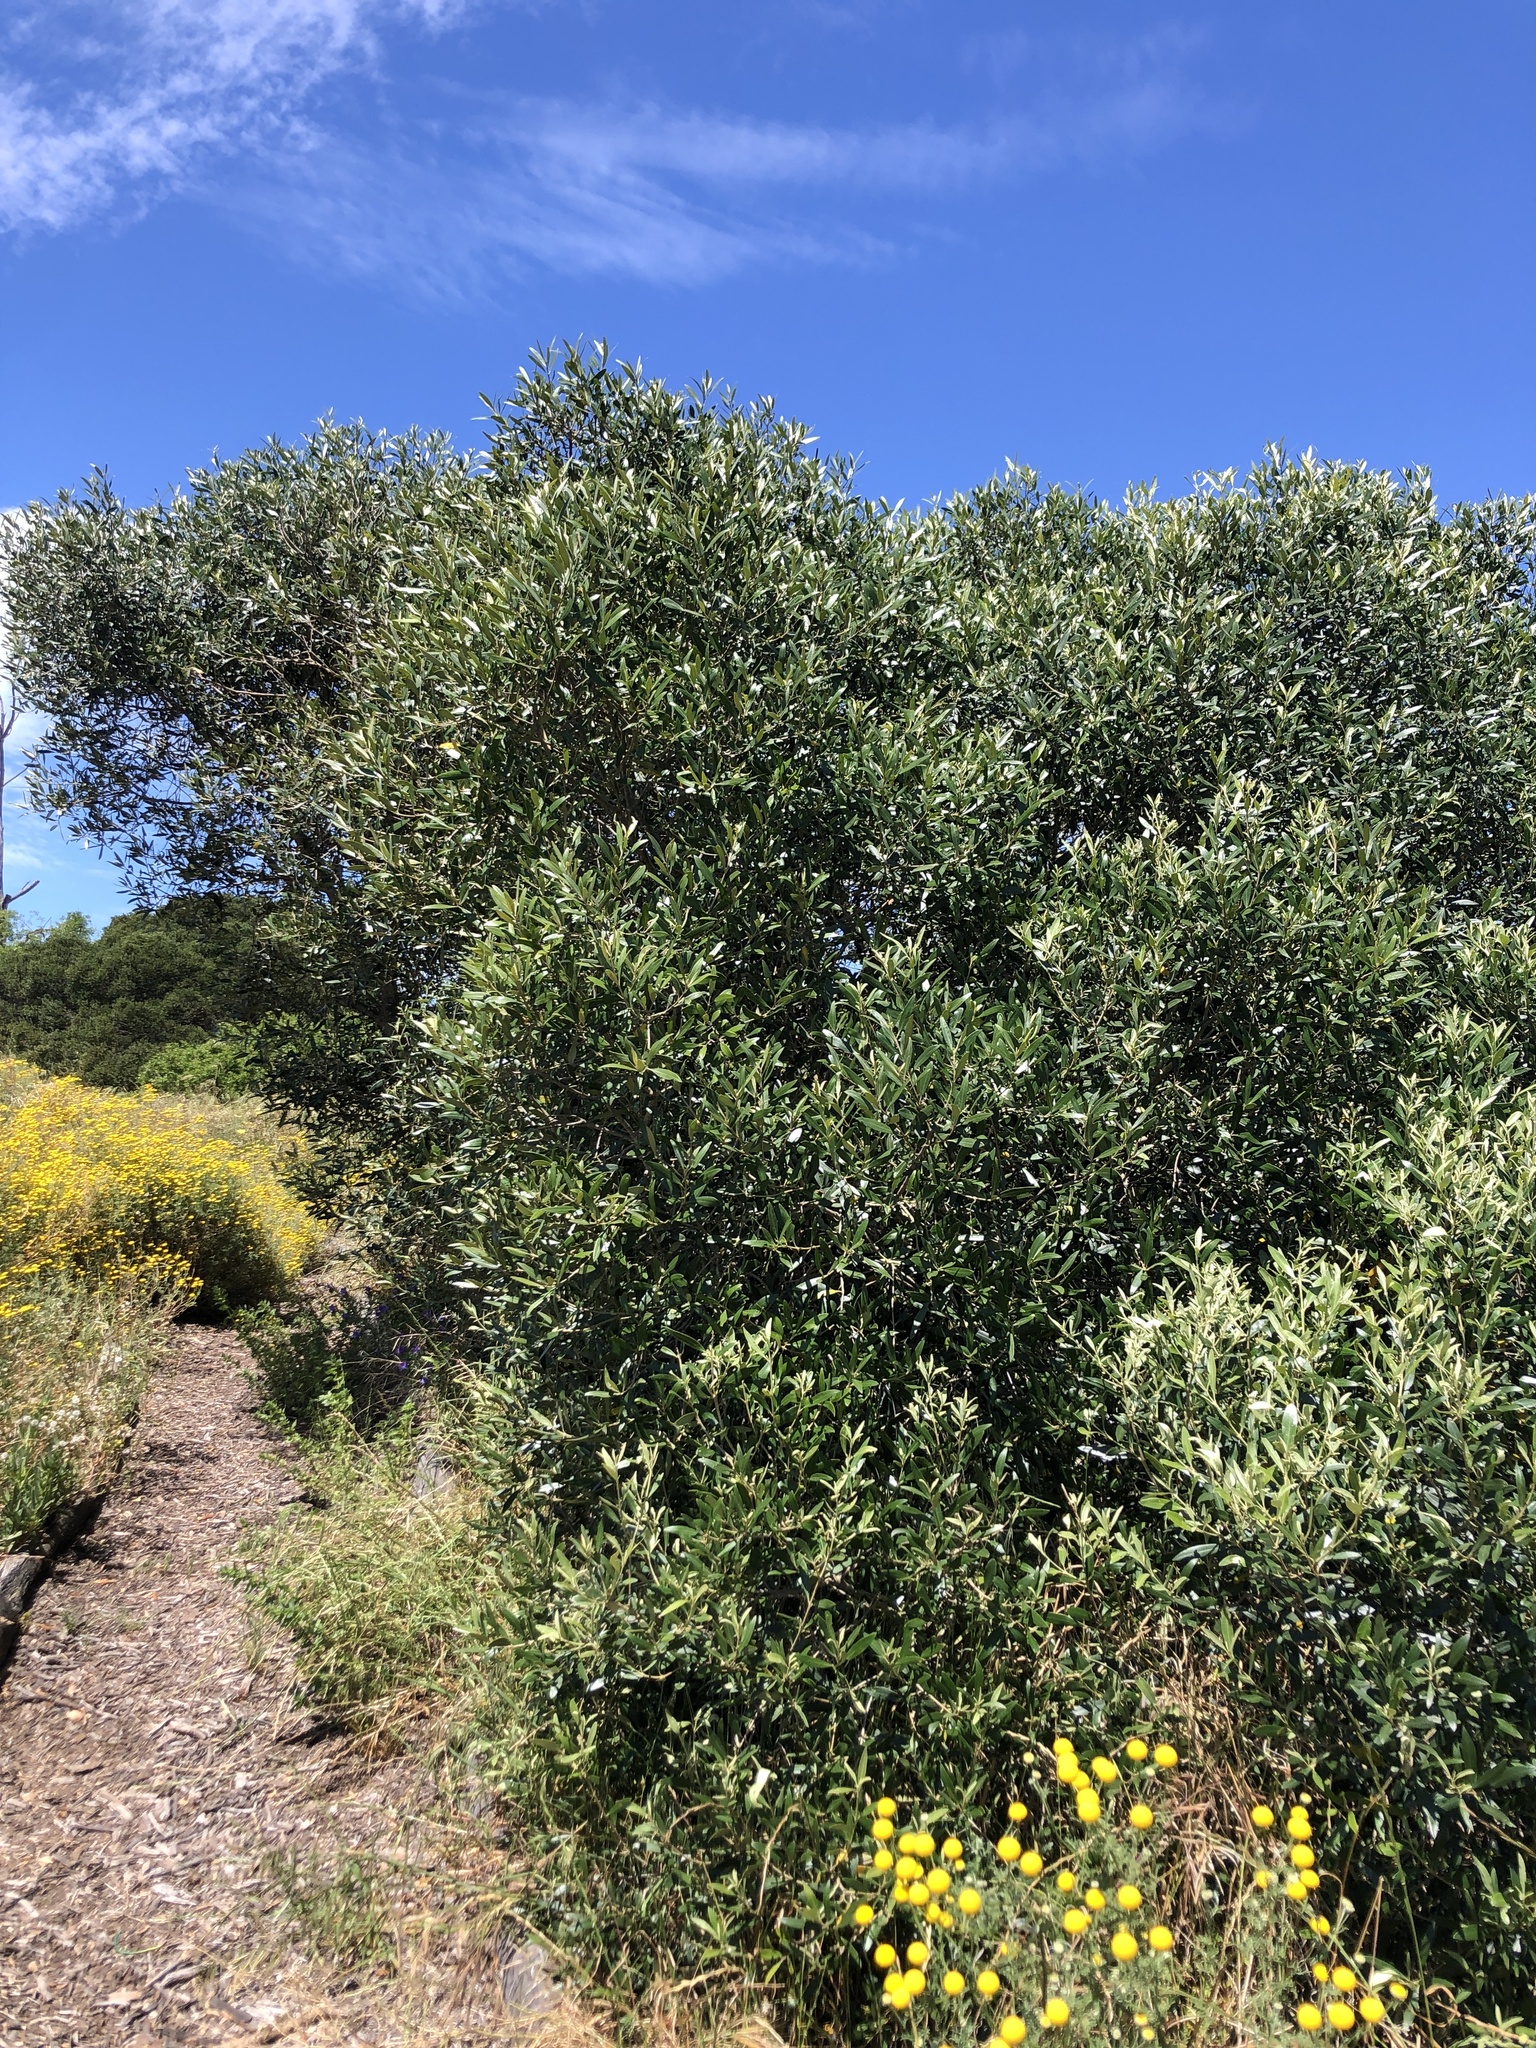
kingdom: Plantae
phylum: Tracheophyta
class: Magnoliopsida
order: Lamiales
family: Oleaceae
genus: Olea
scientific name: Olea europaea
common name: Olive
